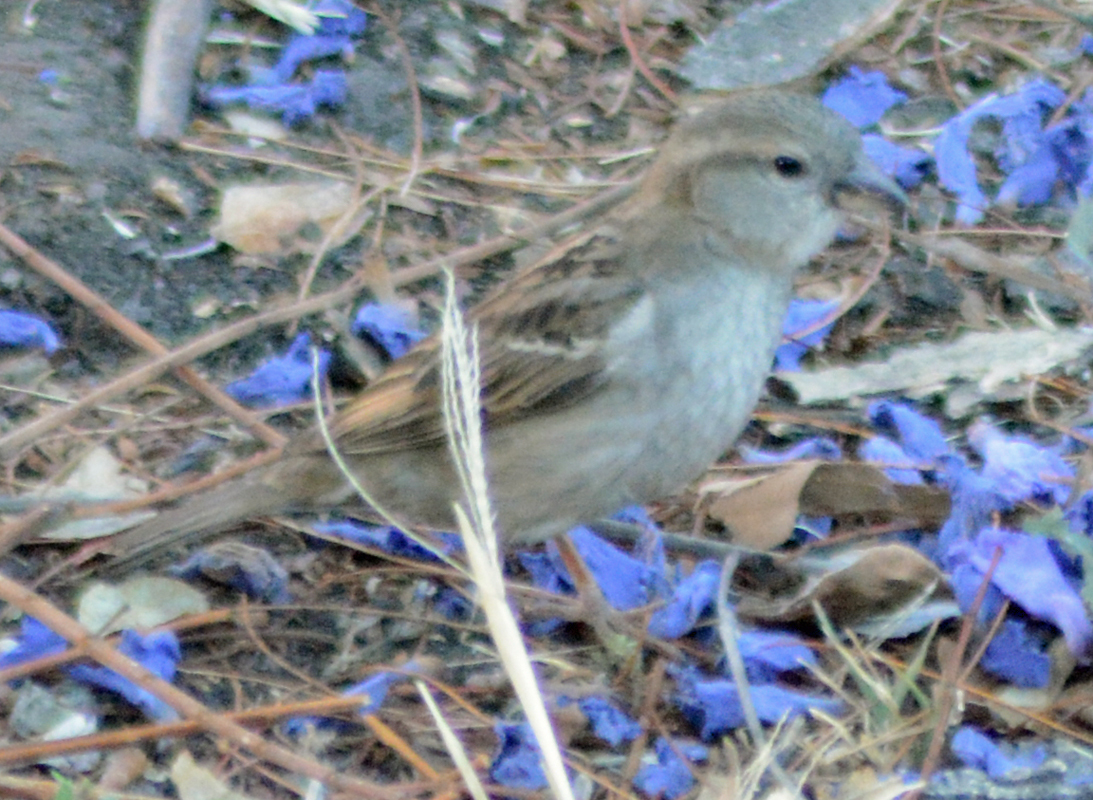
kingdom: Animalia
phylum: Chordata
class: Aves
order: Passeriformes
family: Passeridae
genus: Passer
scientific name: Passer domesticus
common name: House sparrow
